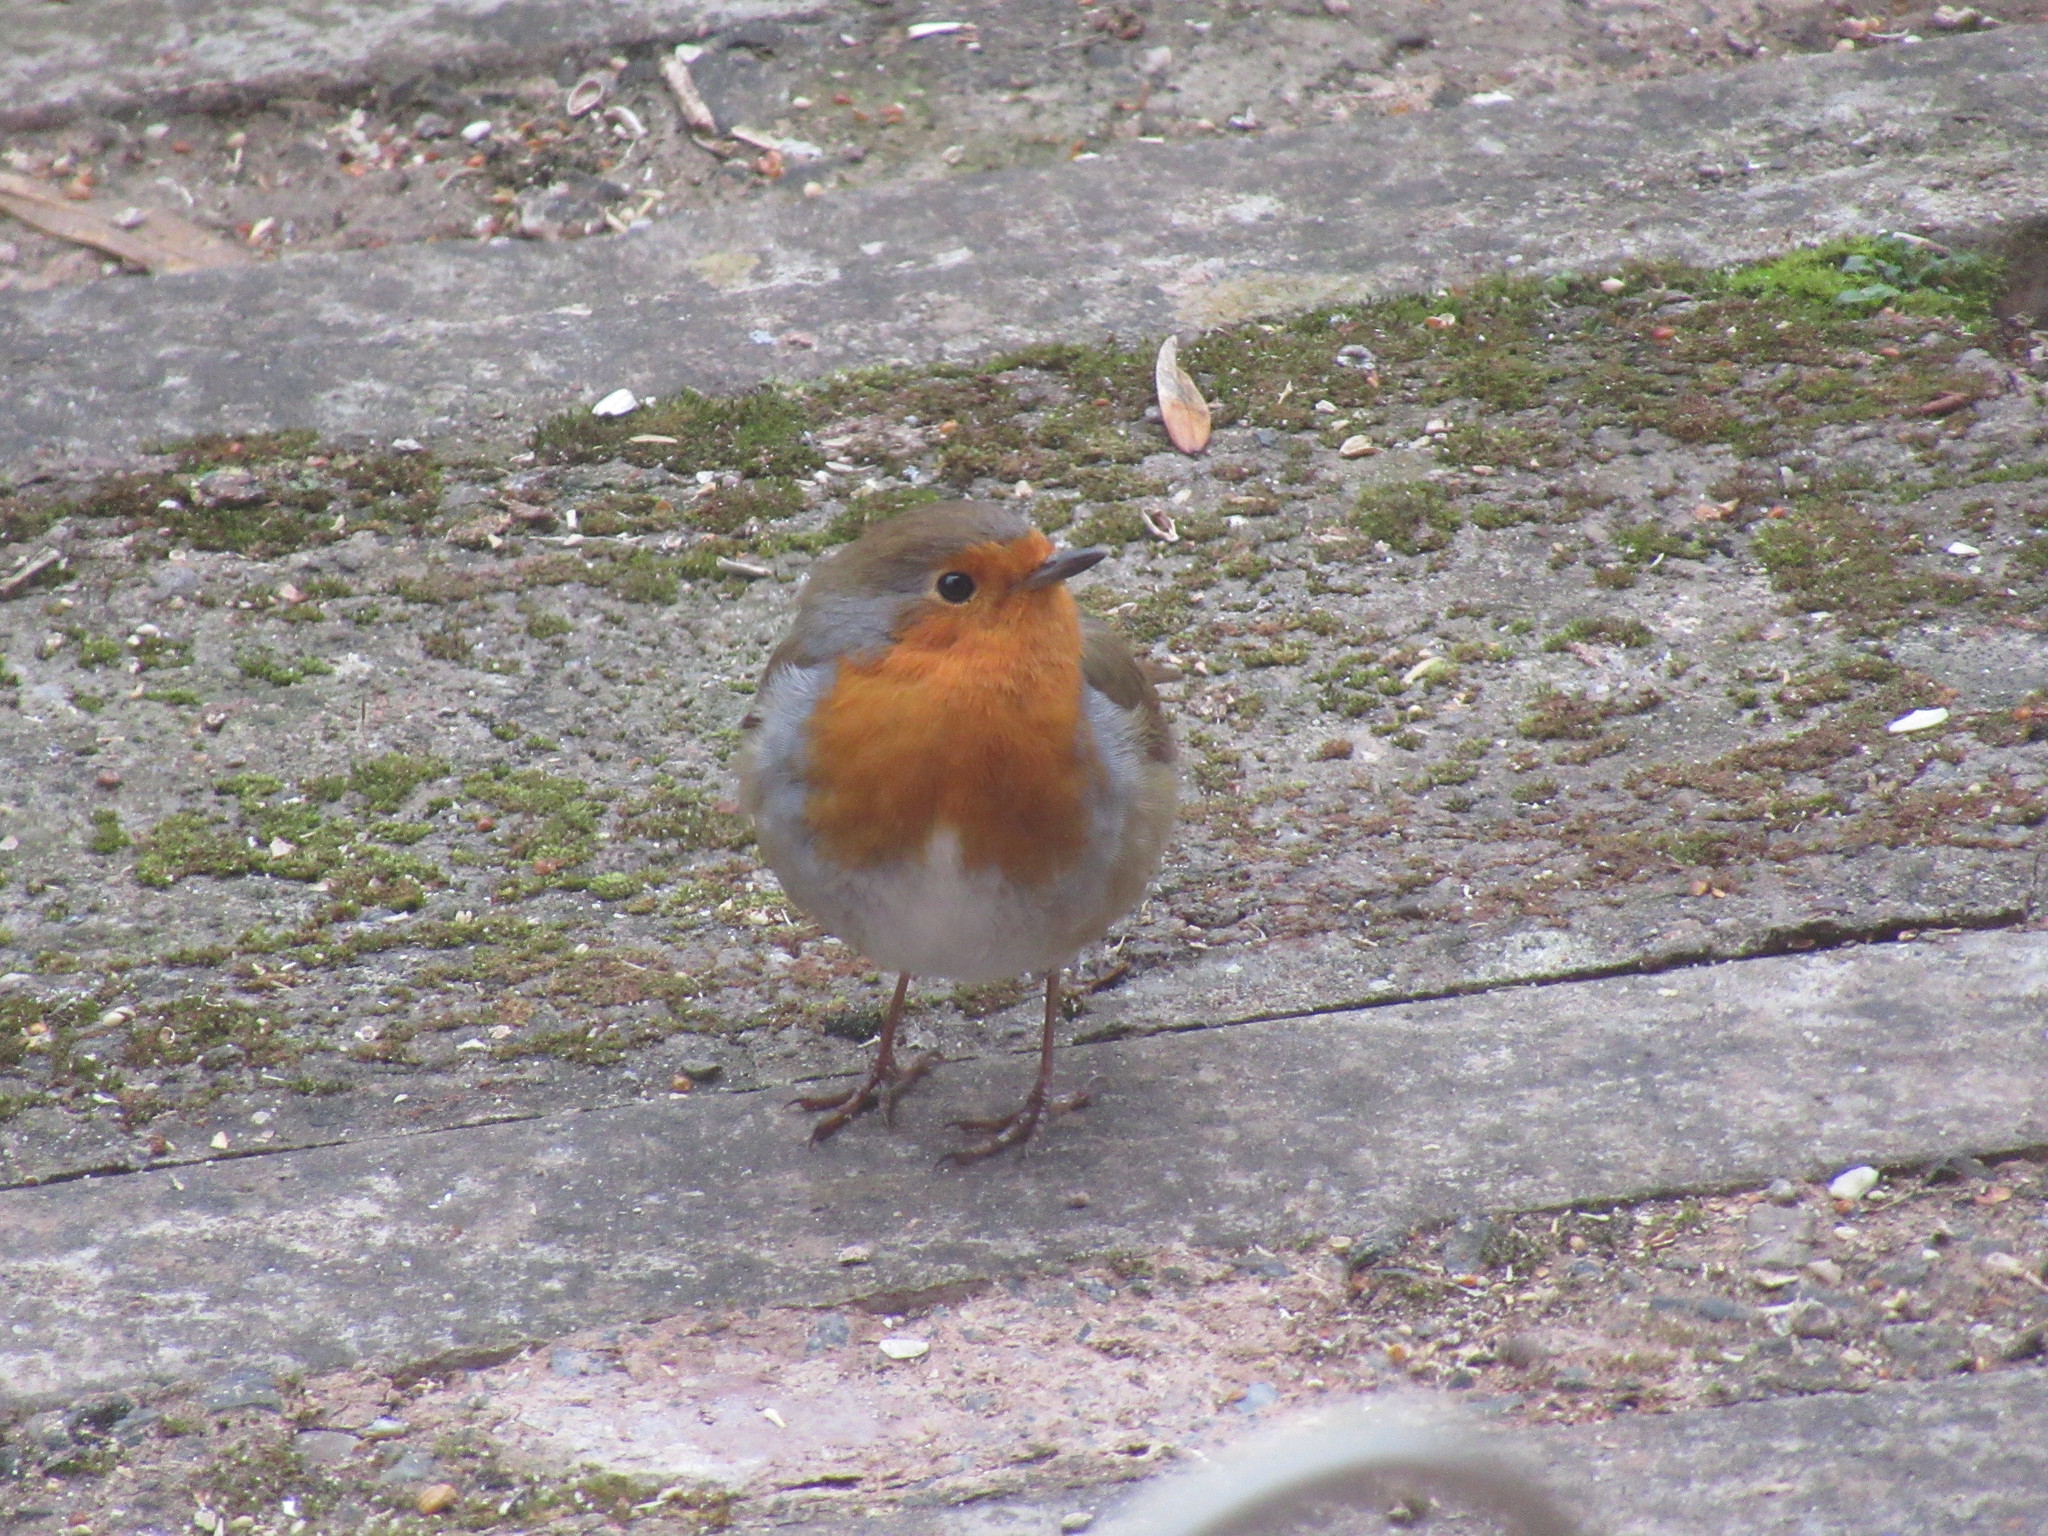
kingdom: Animalia
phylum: Chordata
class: Aves
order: Passeriformes
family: Muscicapidae
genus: Erithacus
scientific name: Erithacus rubecula
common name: European robin
